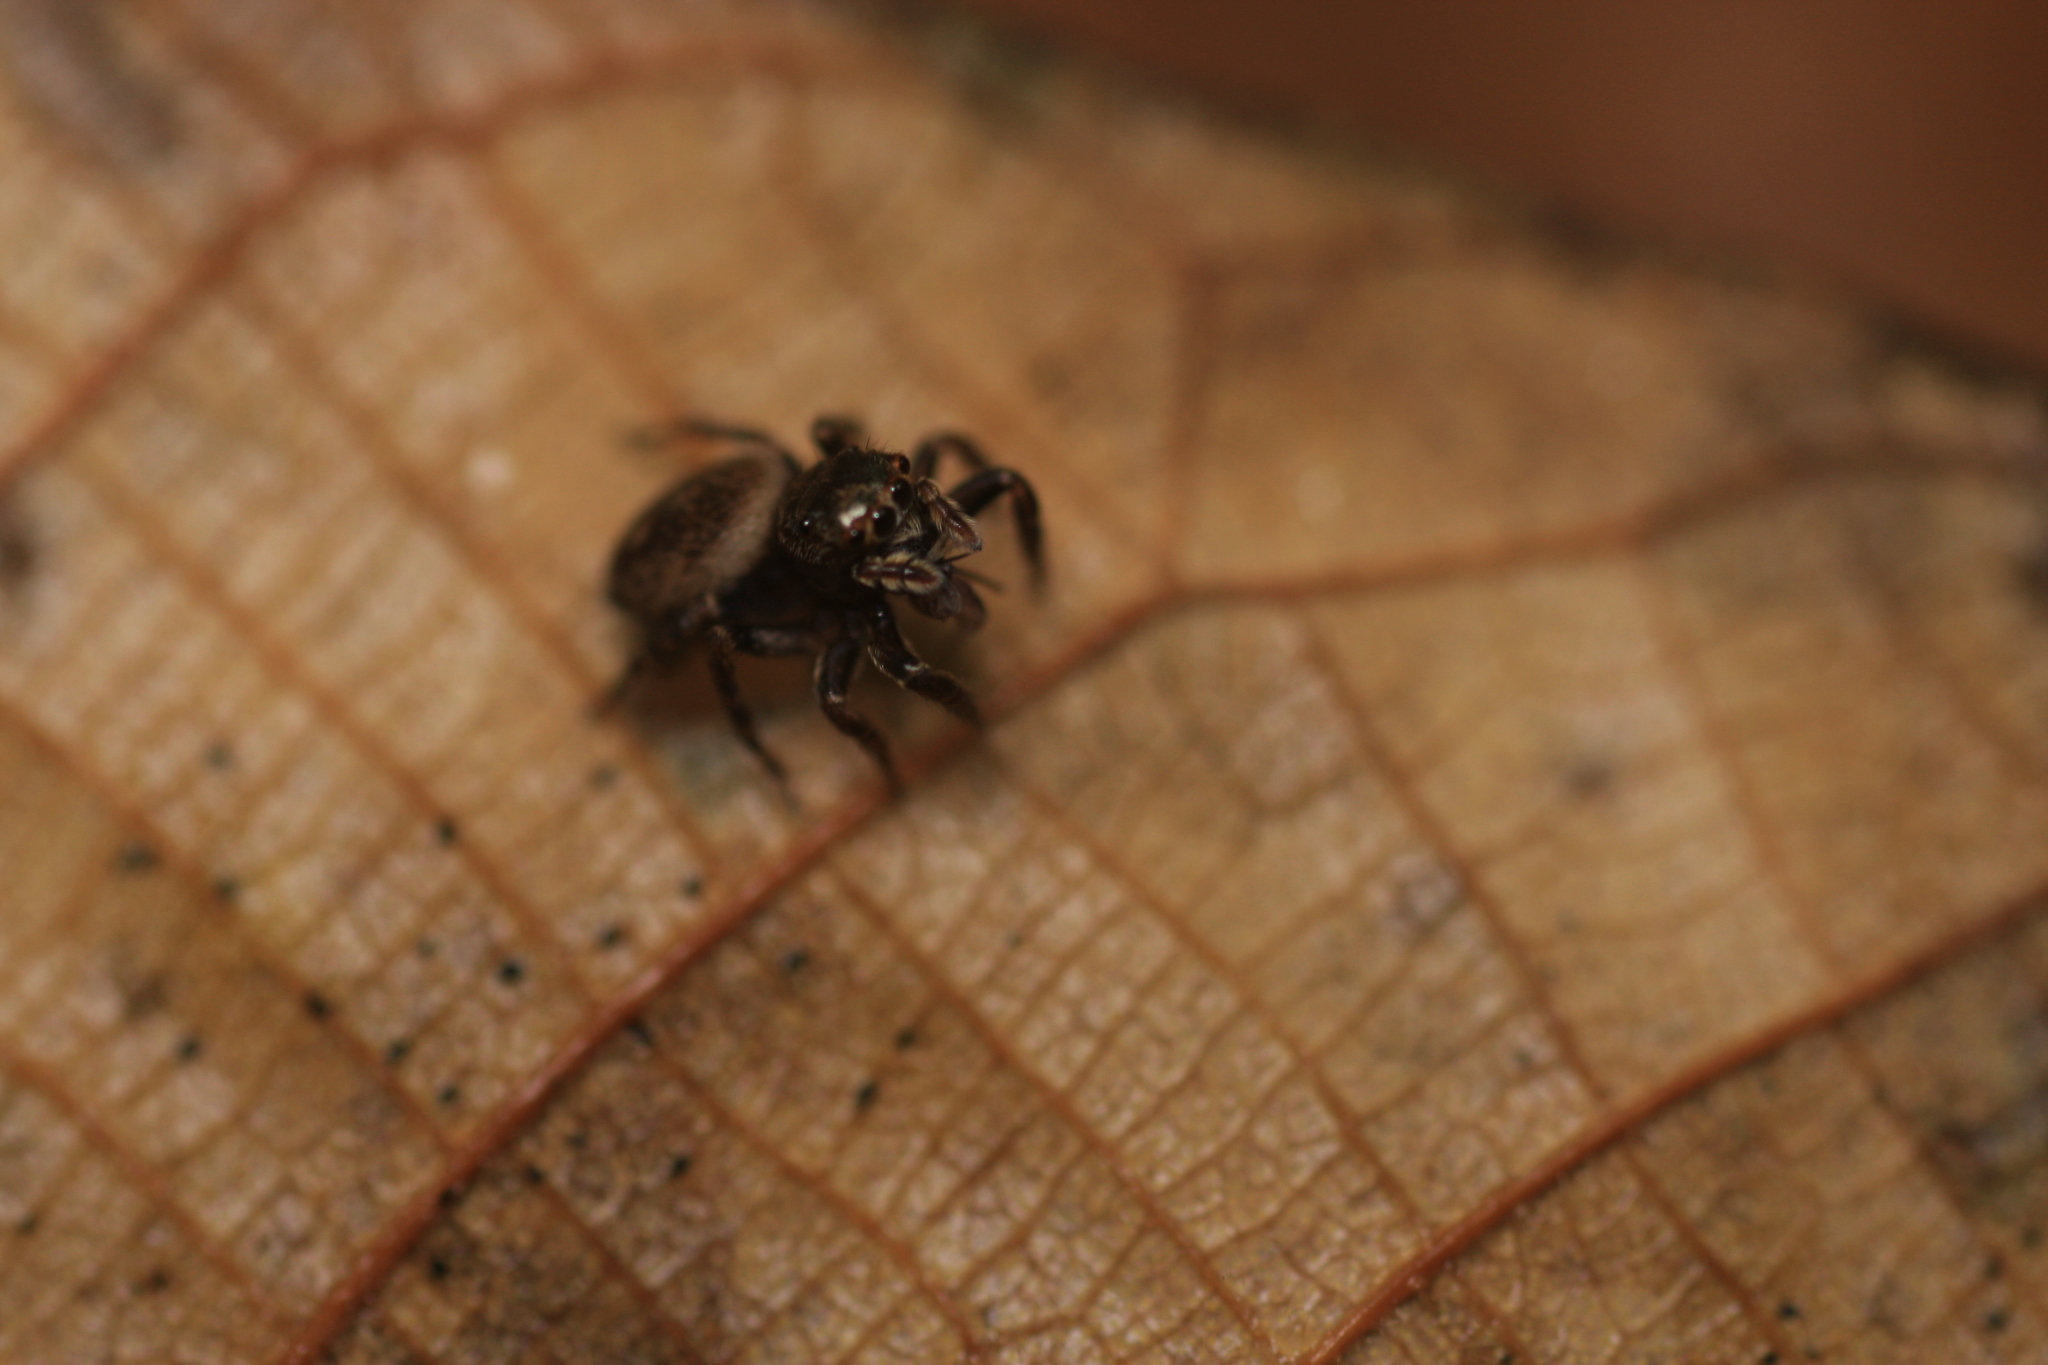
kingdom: Animalia
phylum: Arthropoda
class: Arachnida
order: Araneae
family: Salticidae
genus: Hasarius
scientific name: Hasarius adansoni
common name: Jumping spider
